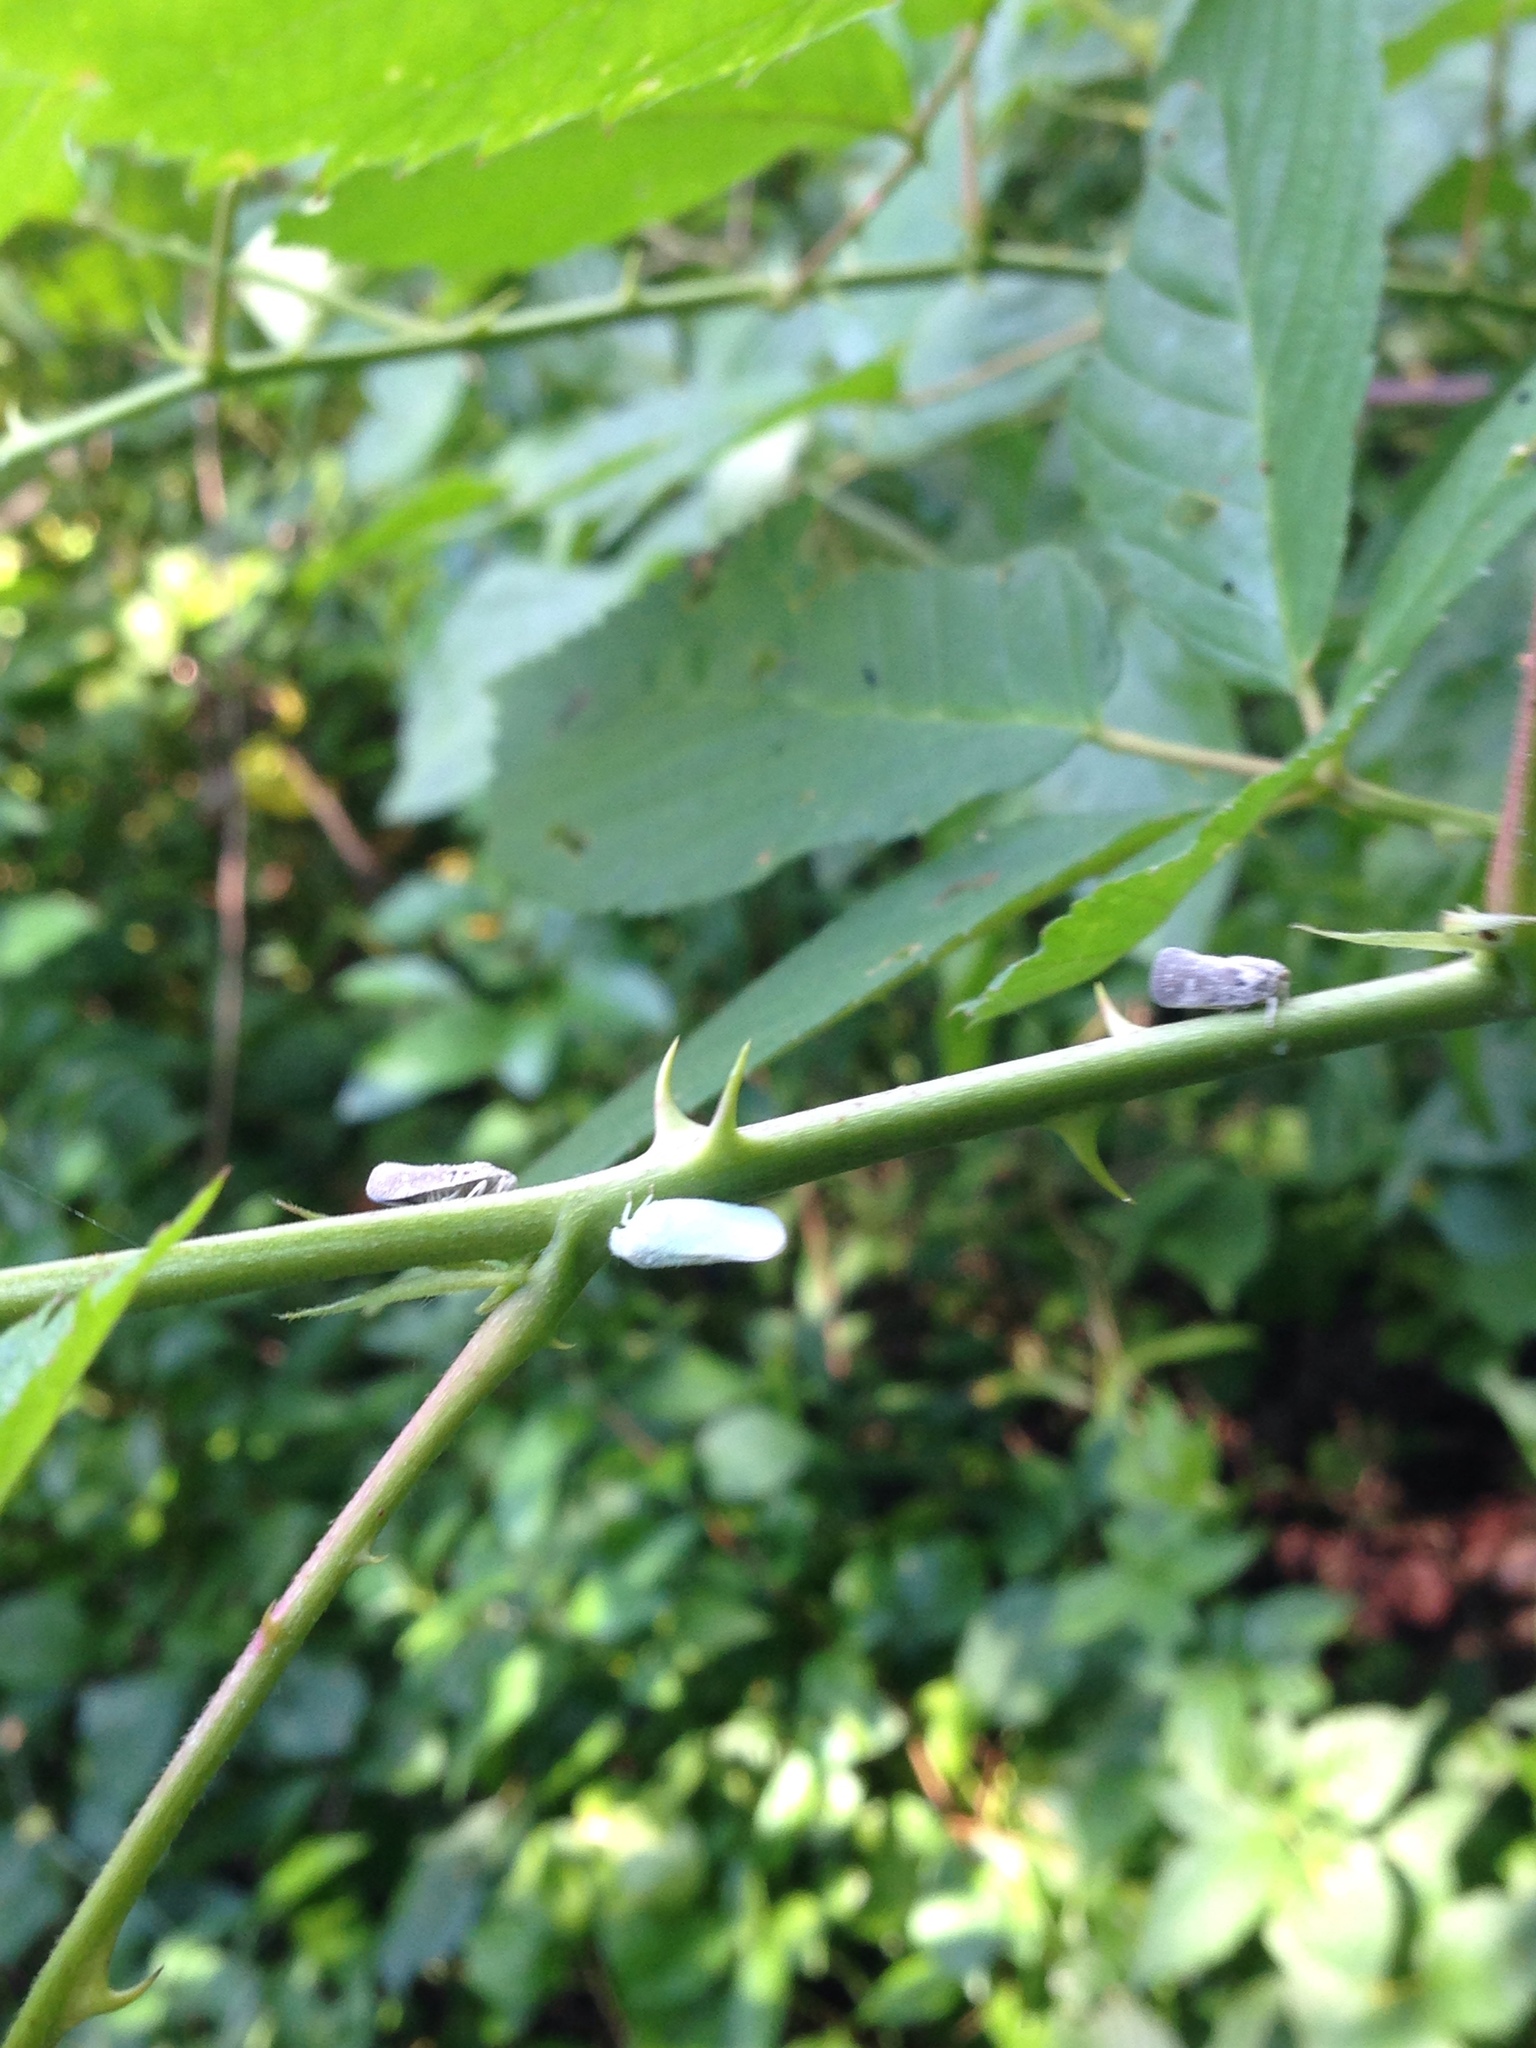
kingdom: Animalia
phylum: Arthropoda
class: Insecta
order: Hemiptera
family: Flatidae
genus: Metcalfa
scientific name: Metcalfa pruinosa
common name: Citrus flatid planthopper
